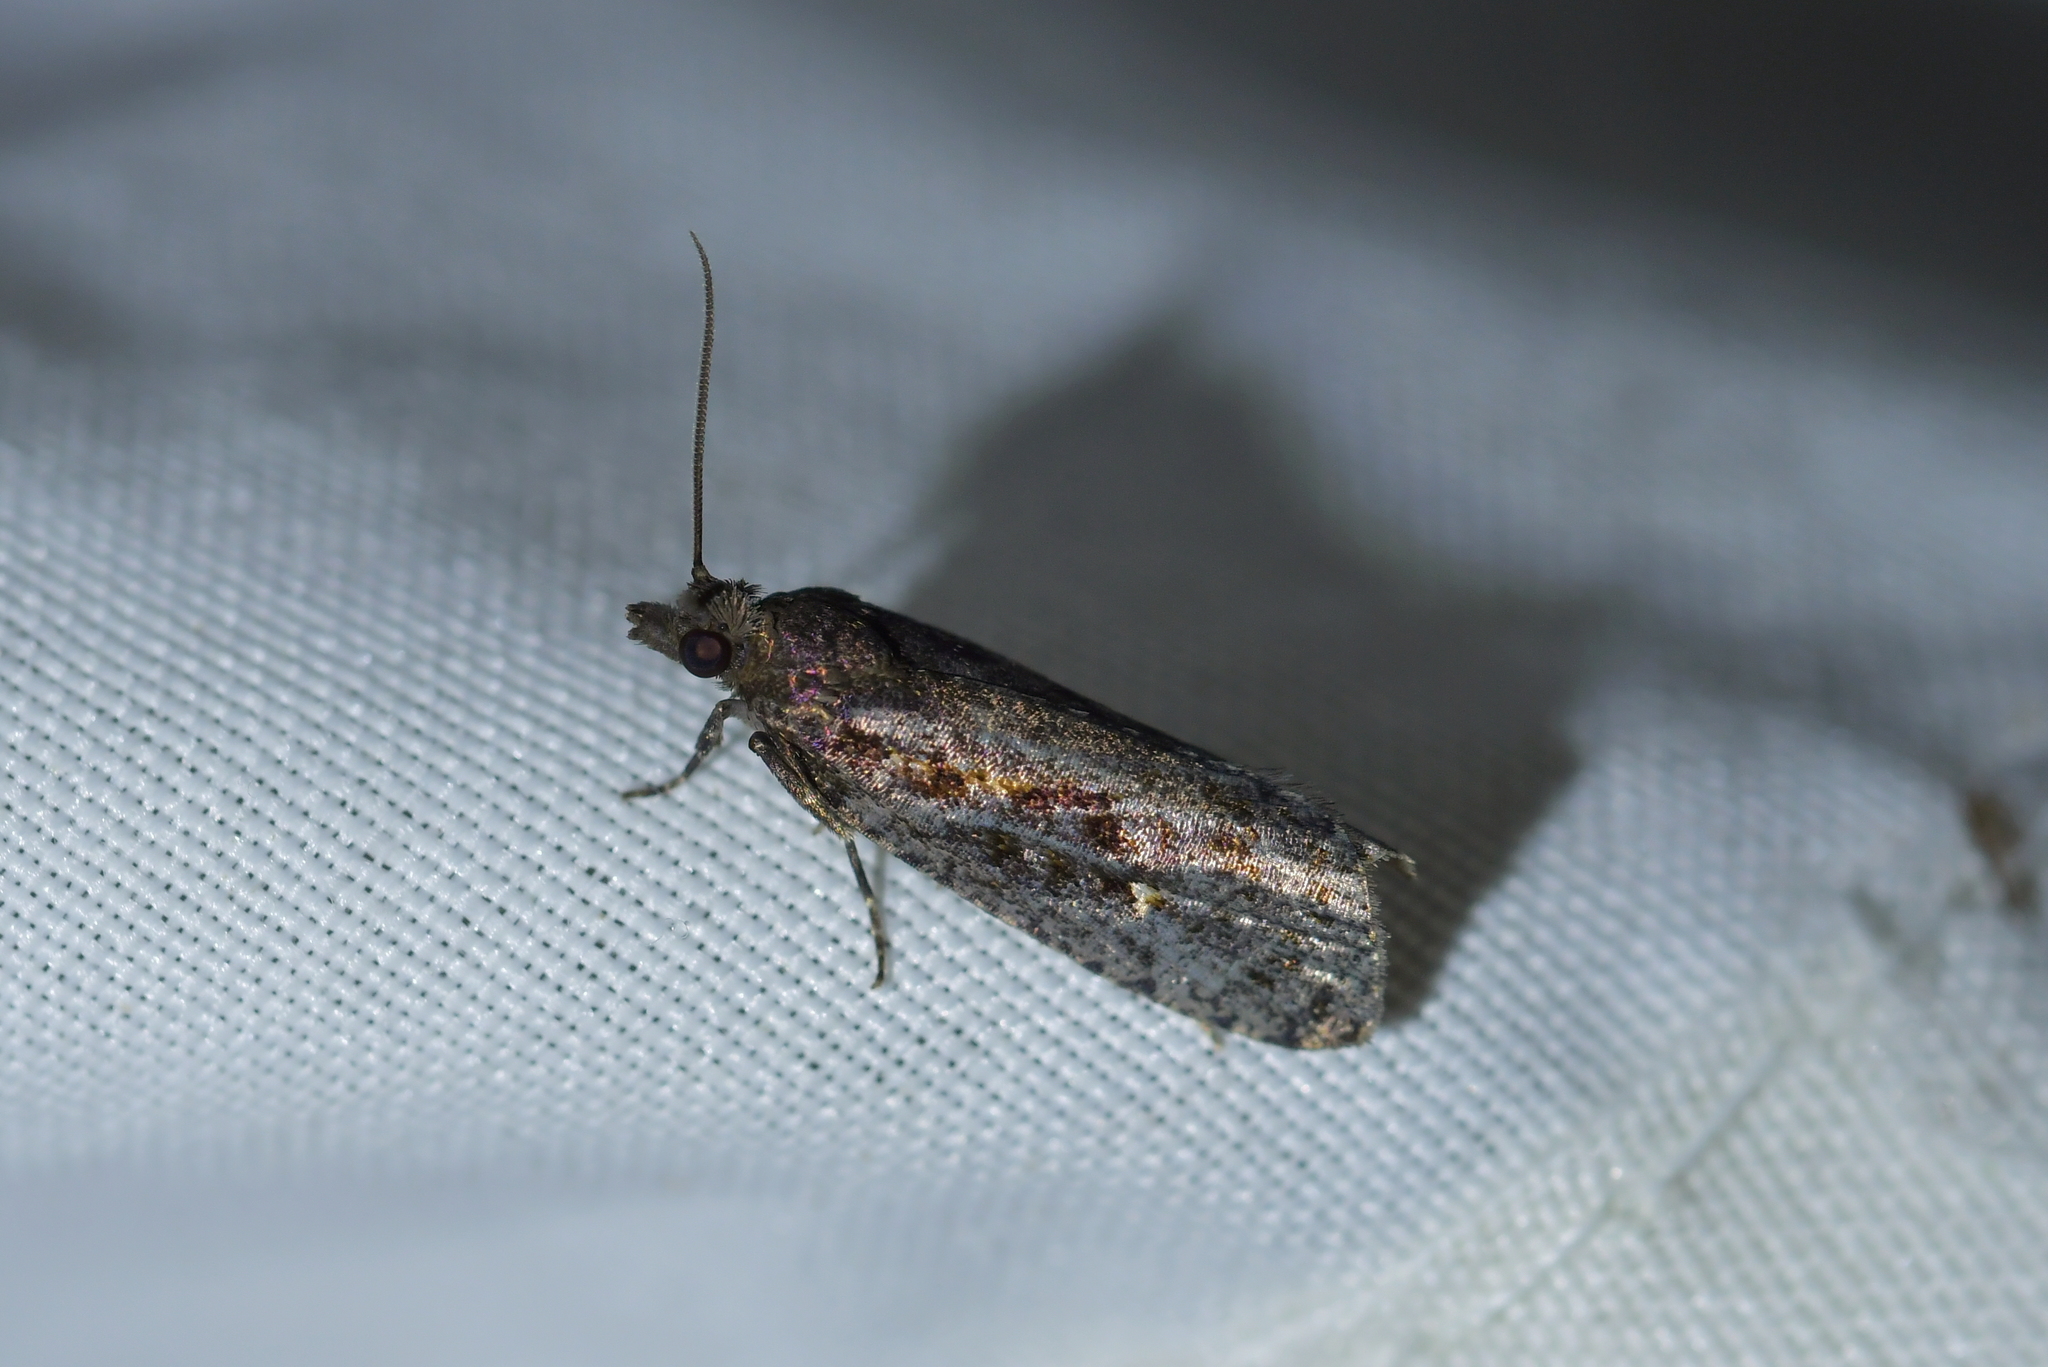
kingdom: Animalia
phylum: Arthropoda
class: Insecta
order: Lepidoptera
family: Tortricidae
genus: Cryptaspasma
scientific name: Cryptaspasma querula
